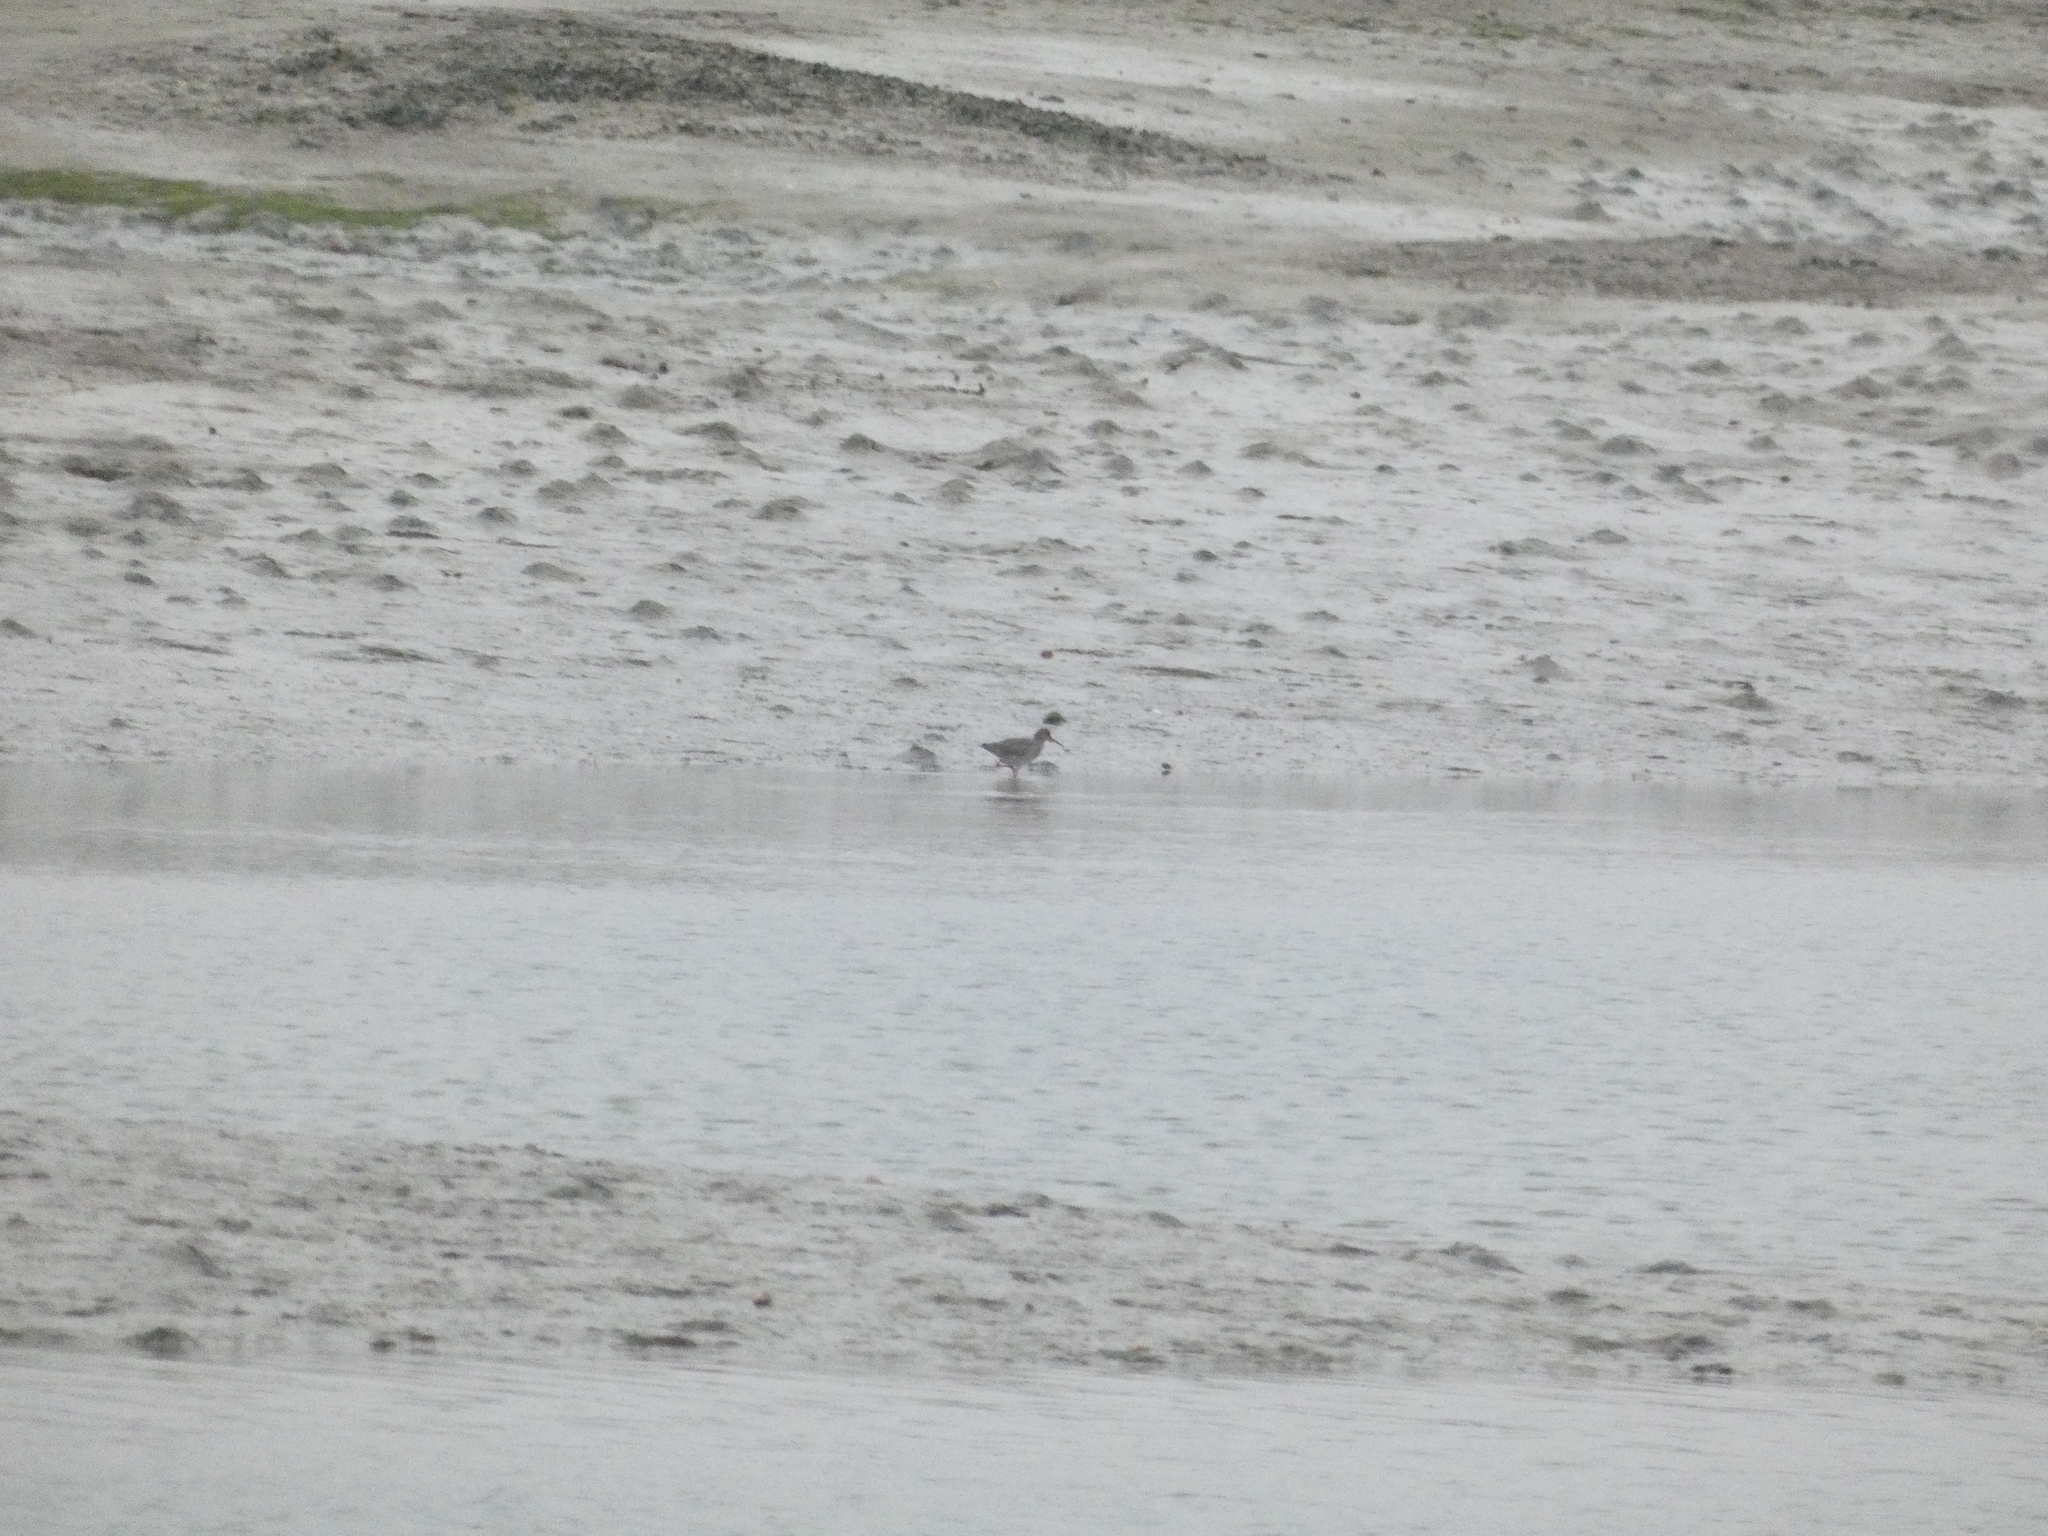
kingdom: Animalia
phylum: Chordata
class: Aves
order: Charadriiformes
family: Scolopacidae
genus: Tringa
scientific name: Tringa totanus
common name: Common redshank
